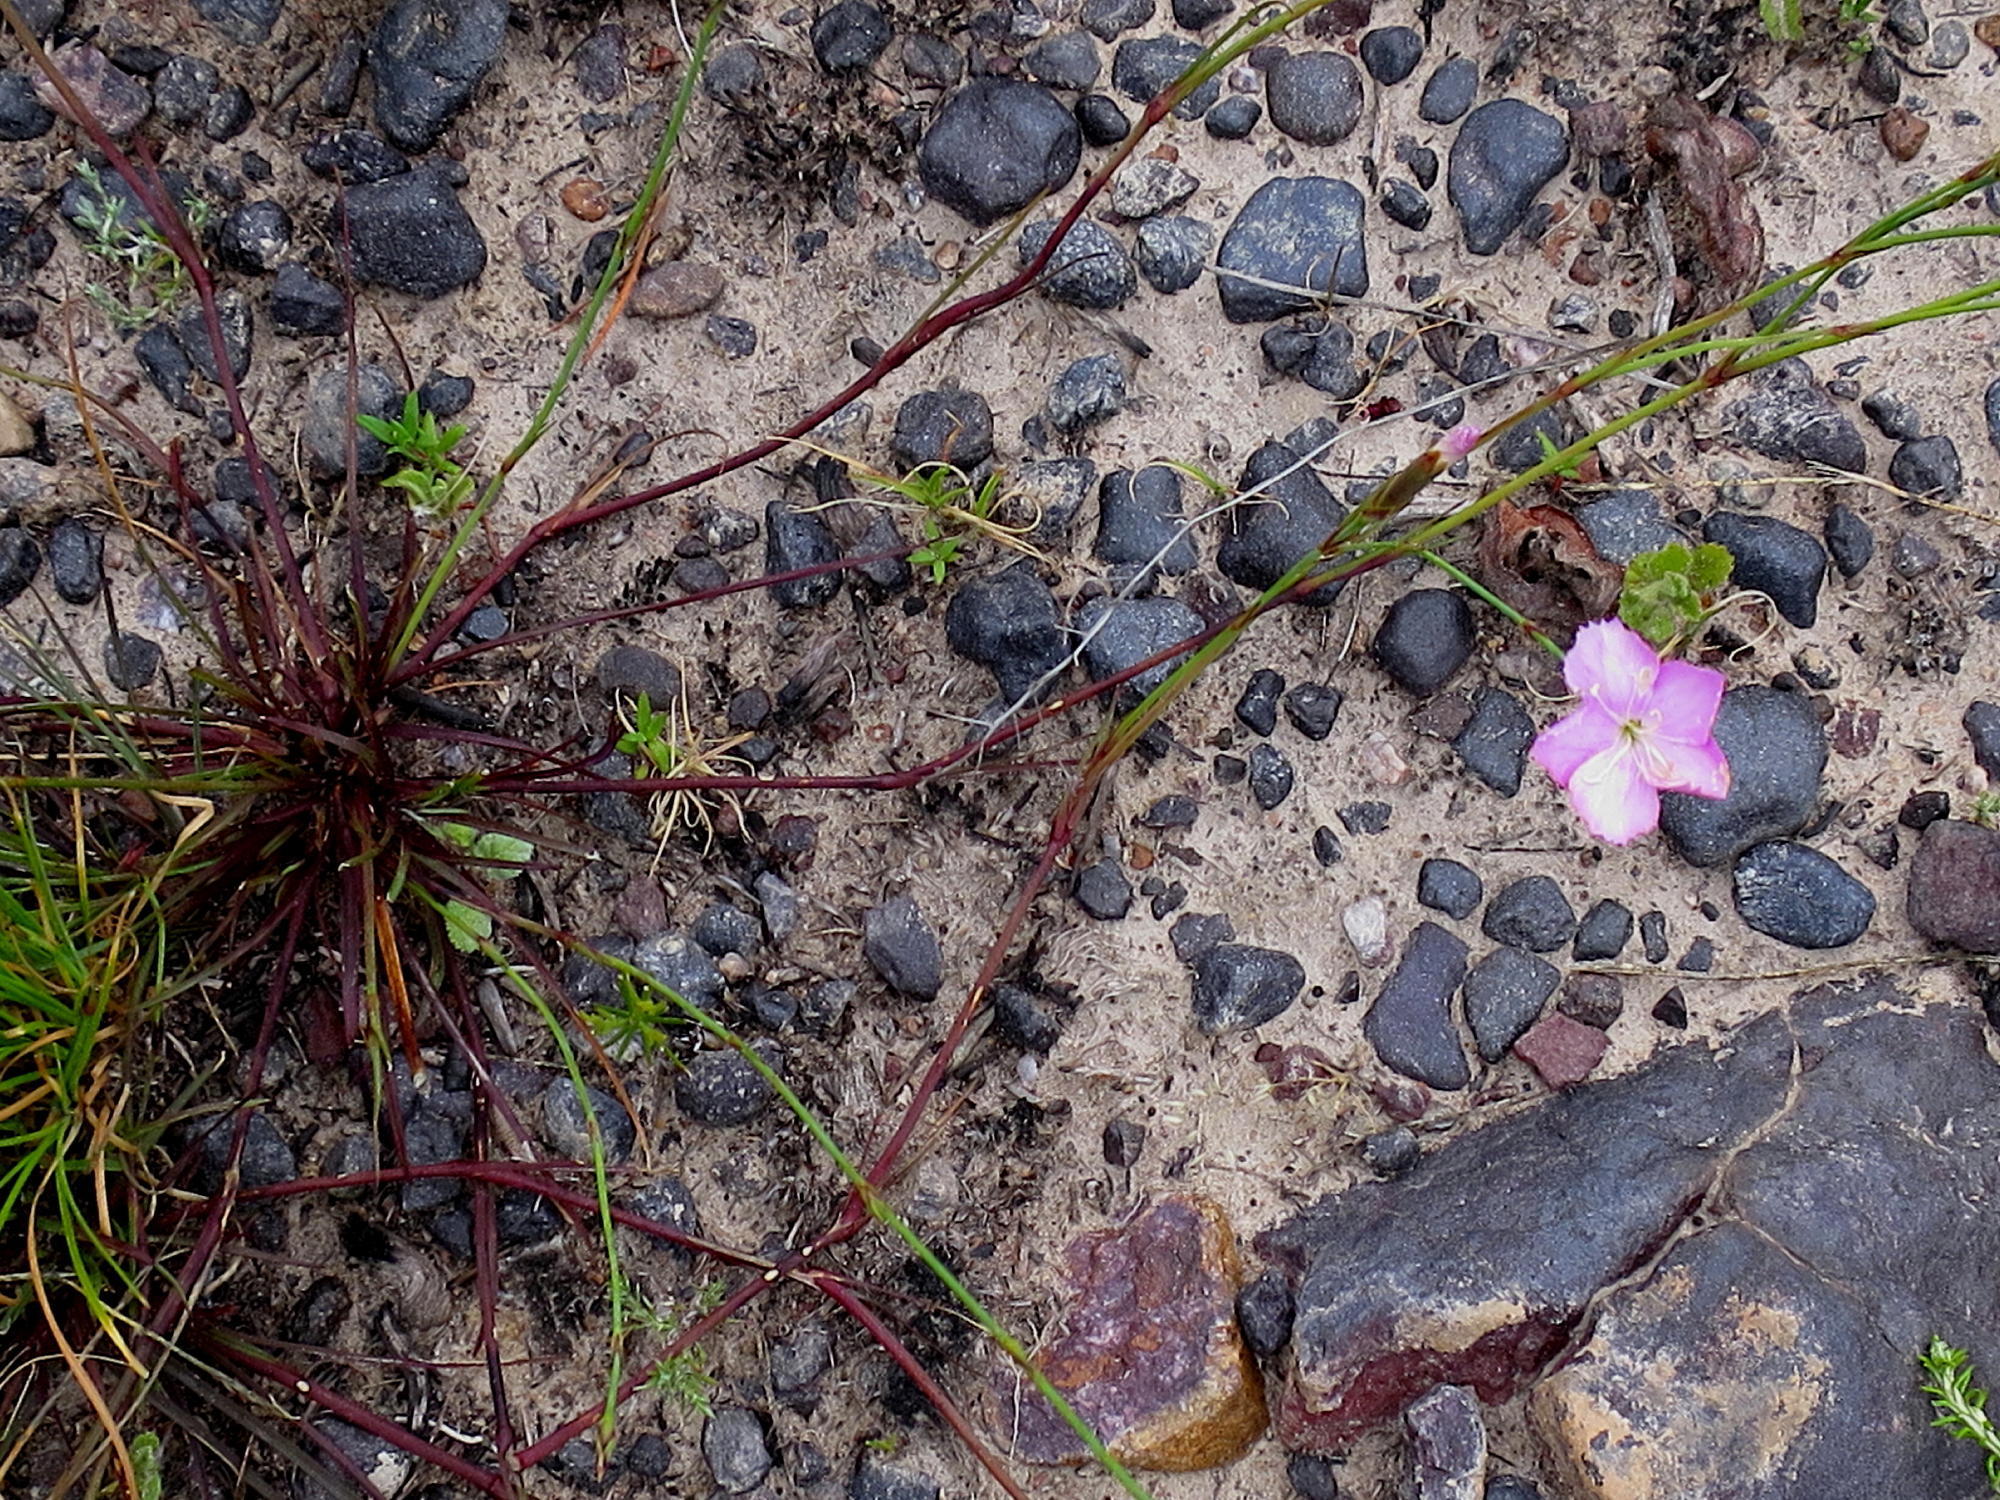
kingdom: Plantae
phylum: Tracheophyta
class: Magnoliopsida
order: Caryophyllales
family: Caryophyllaceae
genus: Dianthus
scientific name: Dianthus thunbergii
